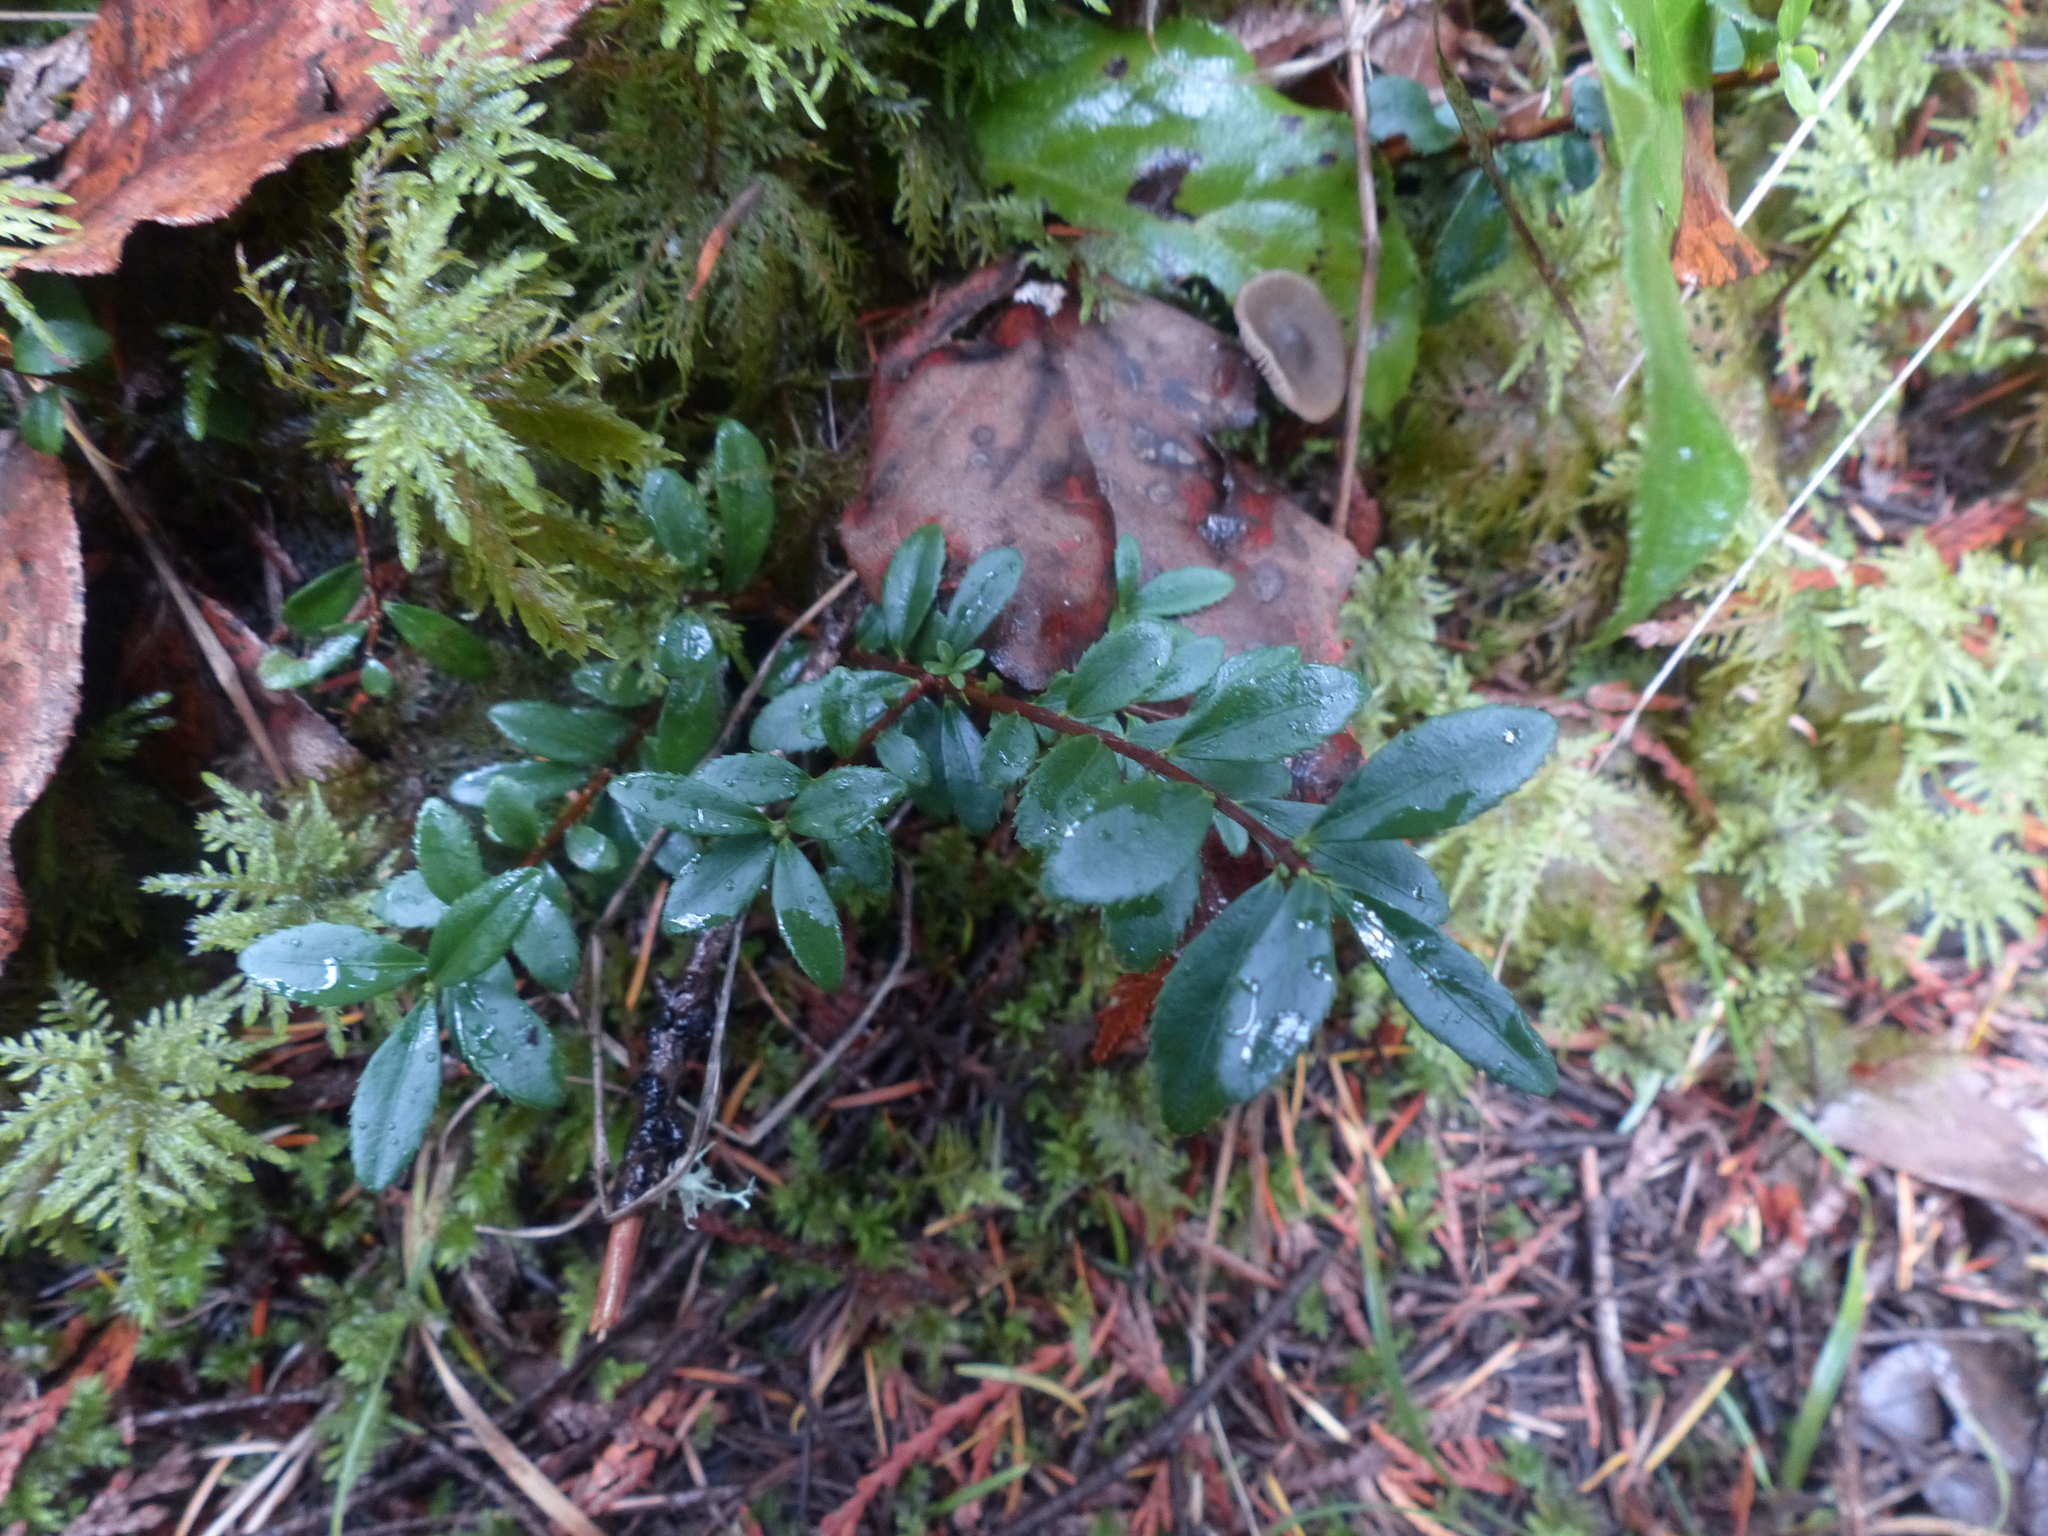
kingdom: Plantae
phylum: Tracheophyta
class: Magnoliopsida
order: Celastrales
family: Celastraceae
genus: Paxistima
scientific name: Paxistima myrsinites
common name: Mountain-lover
